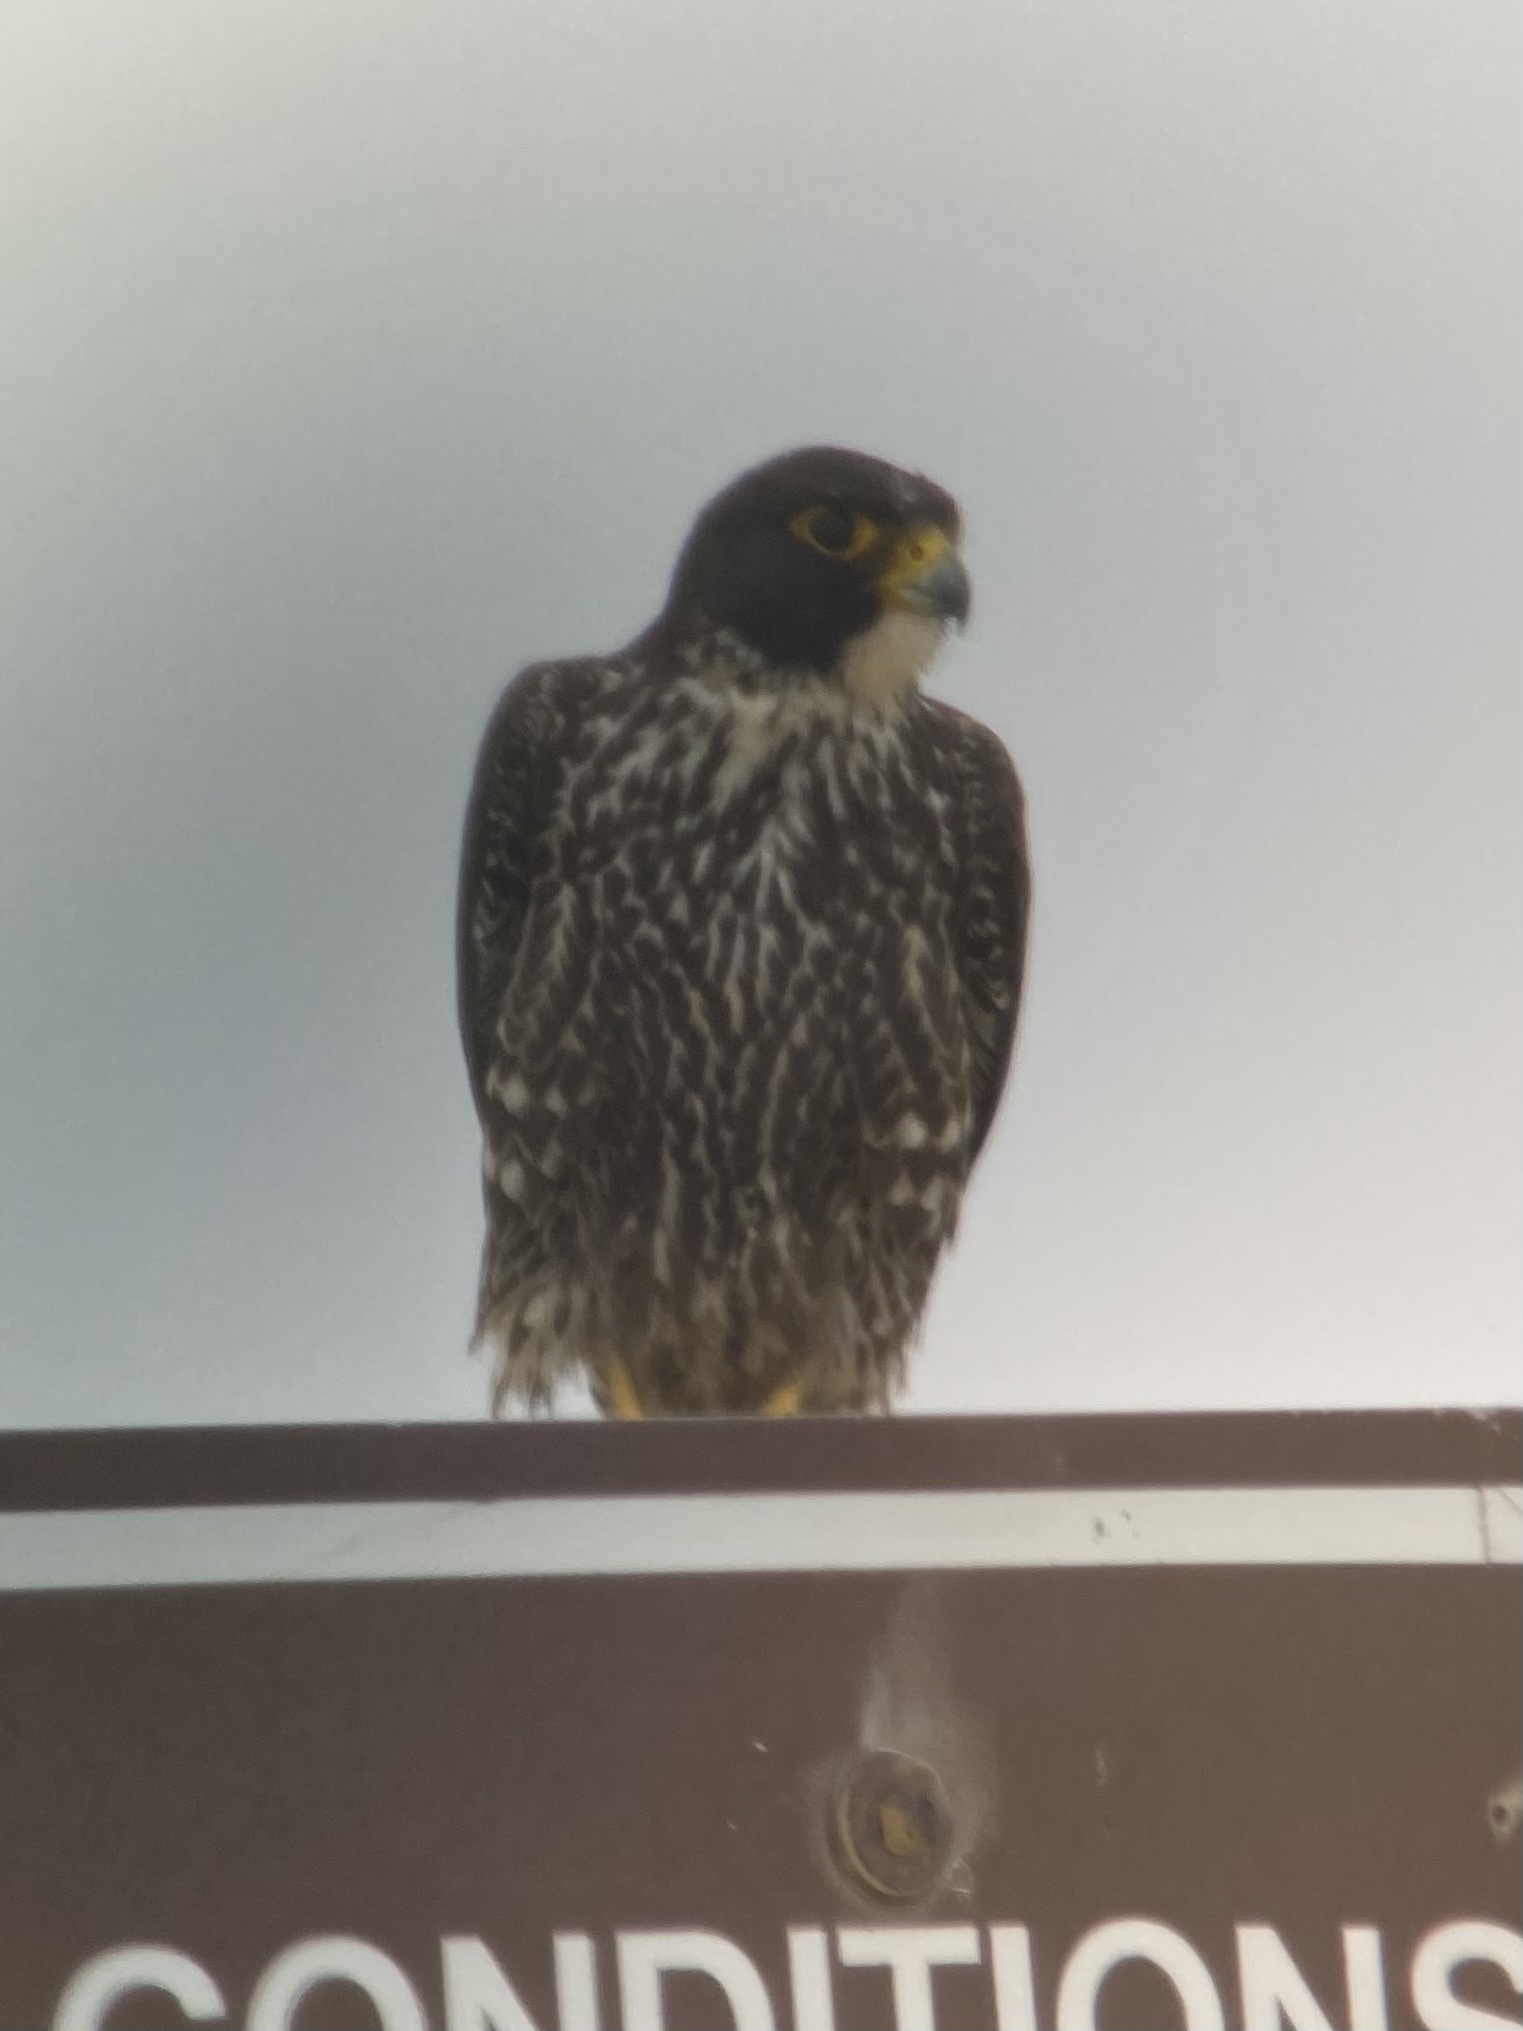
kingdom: Animalia
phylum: Chordata
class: Aves
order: Falconiformes
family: Falconidae
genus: Falco
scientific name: Falco peregrinus
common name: Peregrine falcon
